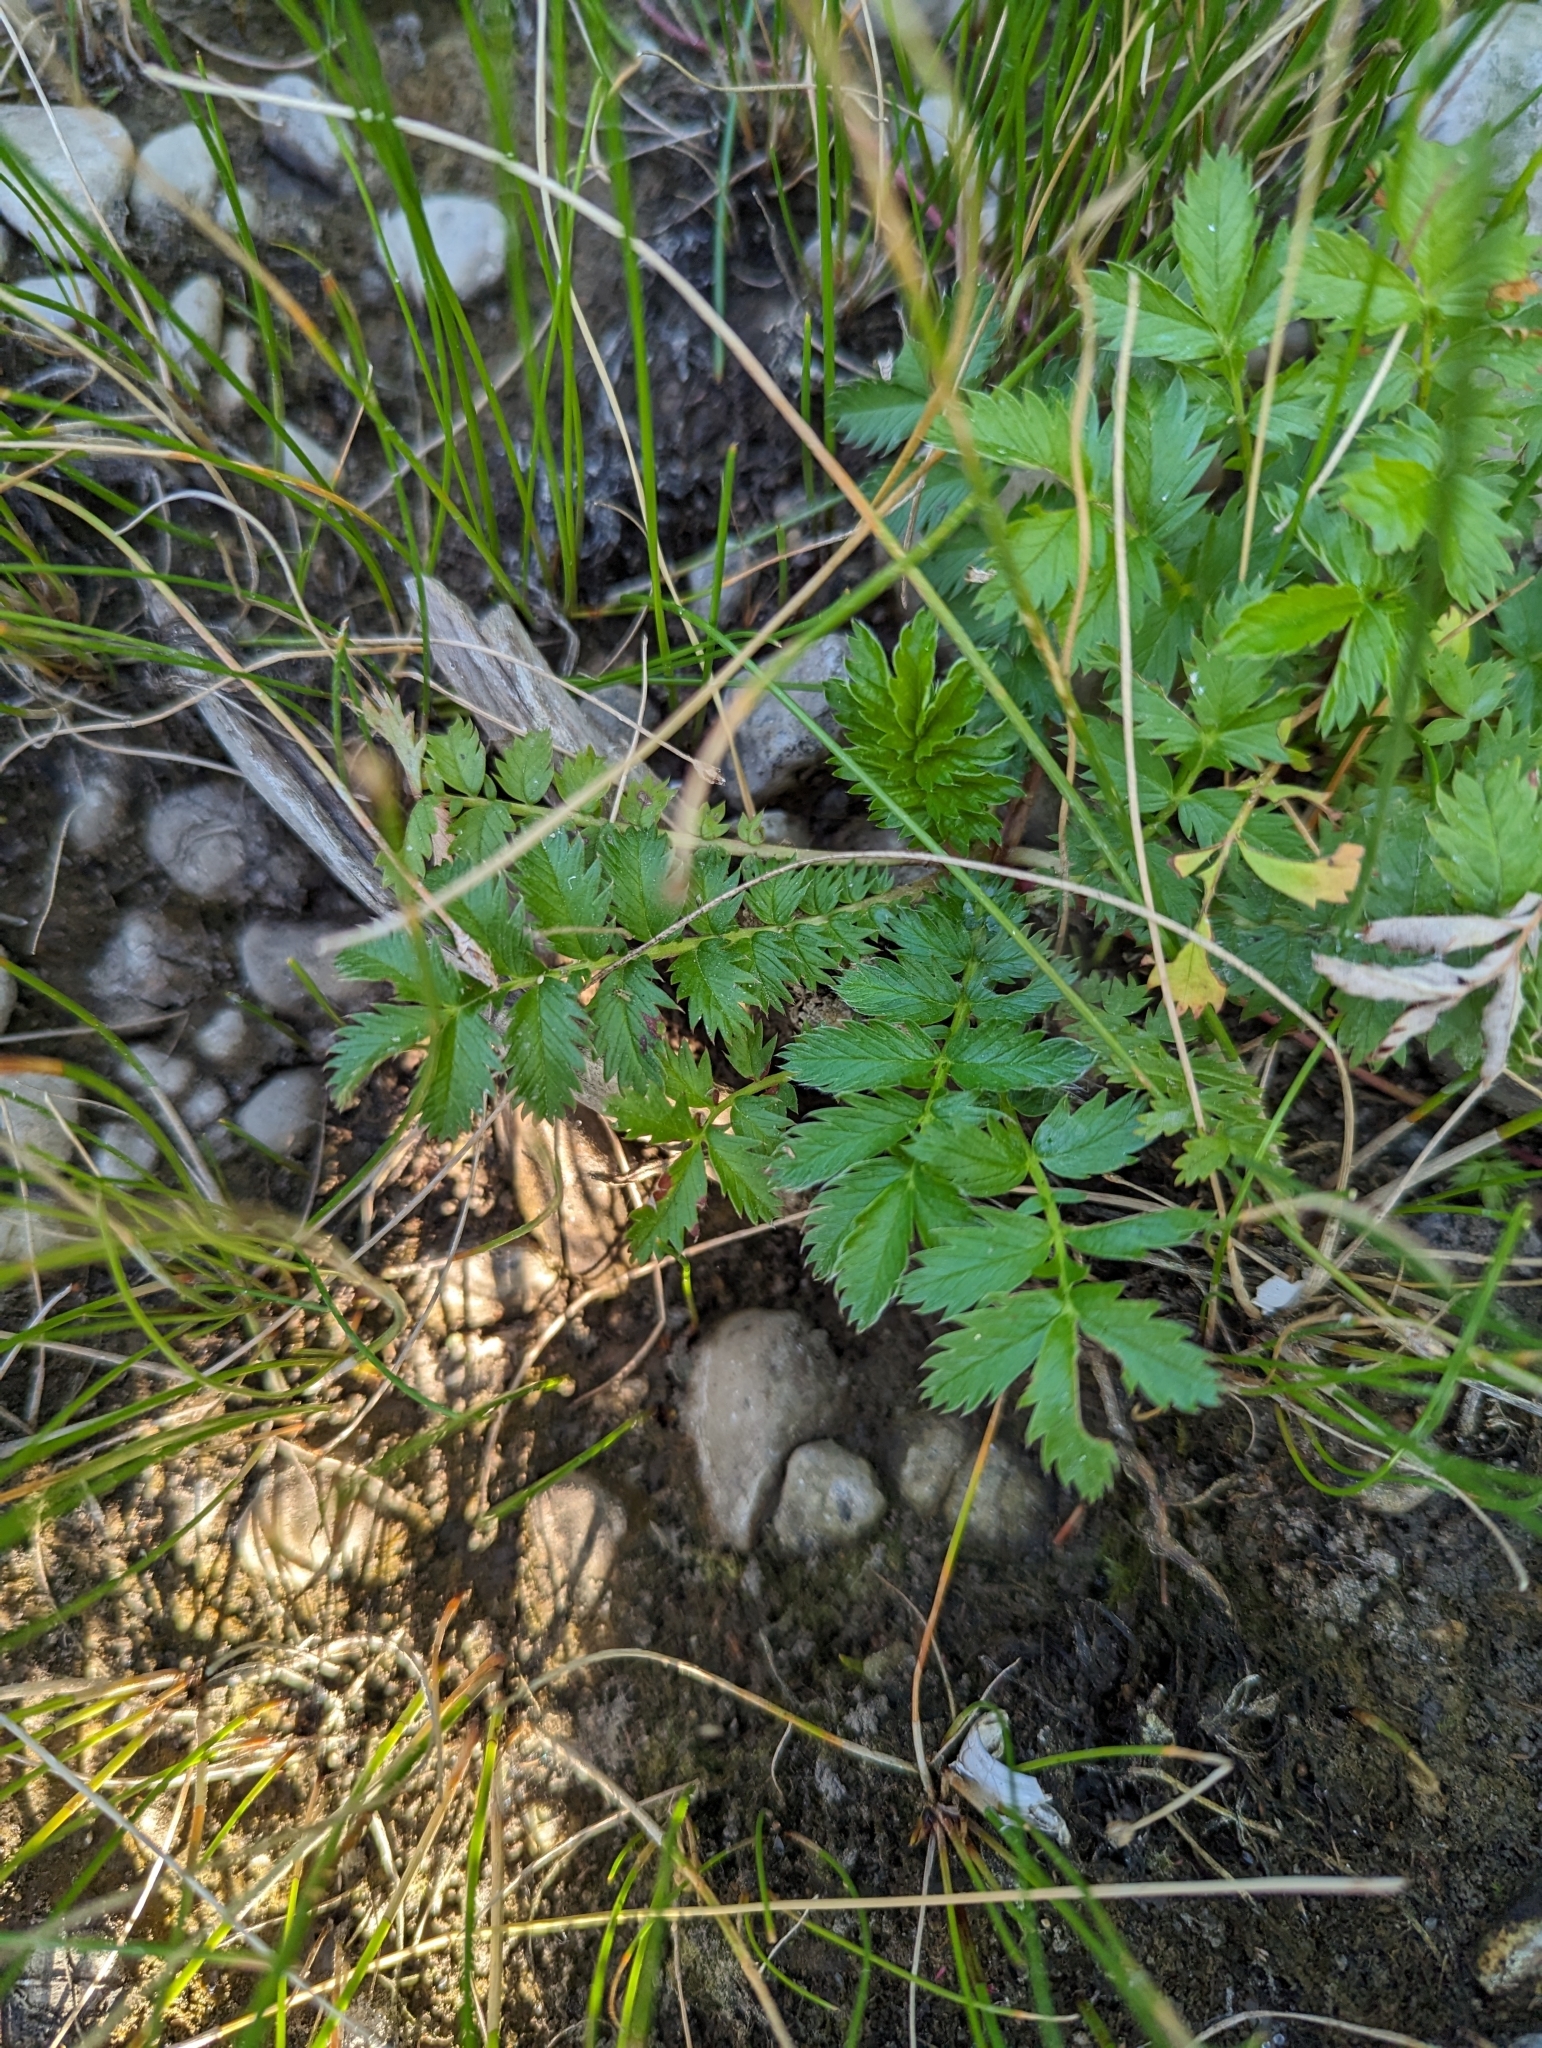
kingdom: Plantae
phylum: Tracheophyta
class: Magnoliopsida
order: Rosales
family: Rosaceae
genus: Argentina
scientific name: Argentina anserina
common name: Common silverweed
